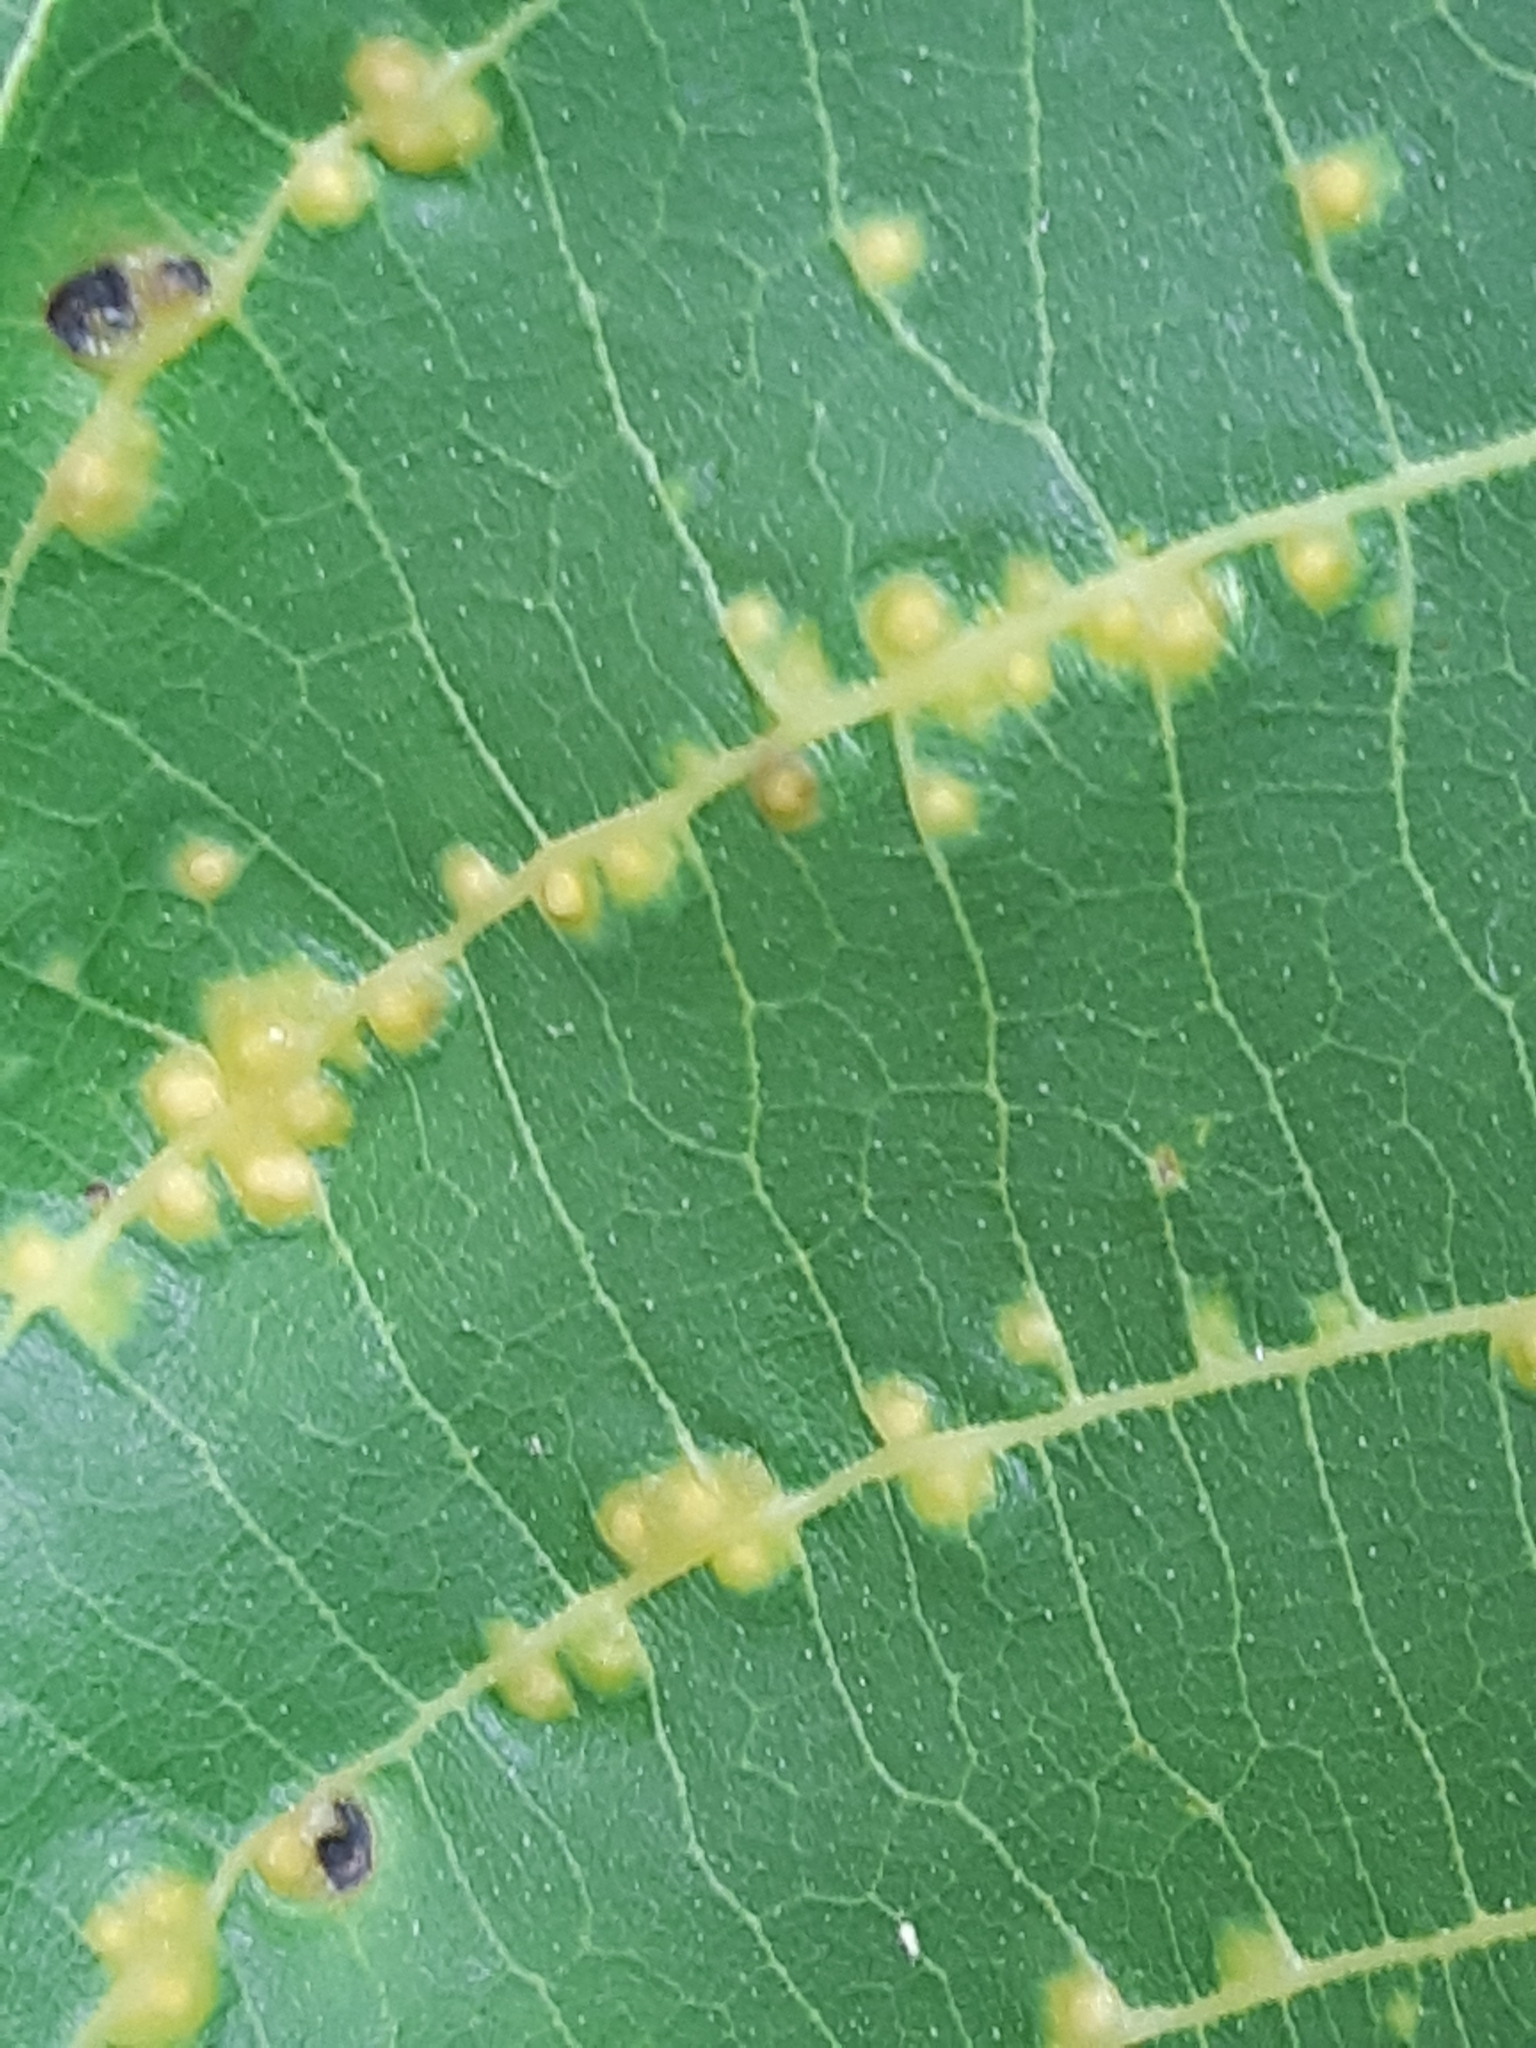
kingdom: Animalia
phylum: Arthropoda
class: Arachnida
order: Trombidiformes
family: Eriophyidae
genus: Aceria
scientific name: Aceria tristriata
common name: Persian walnut leaf blister mite
